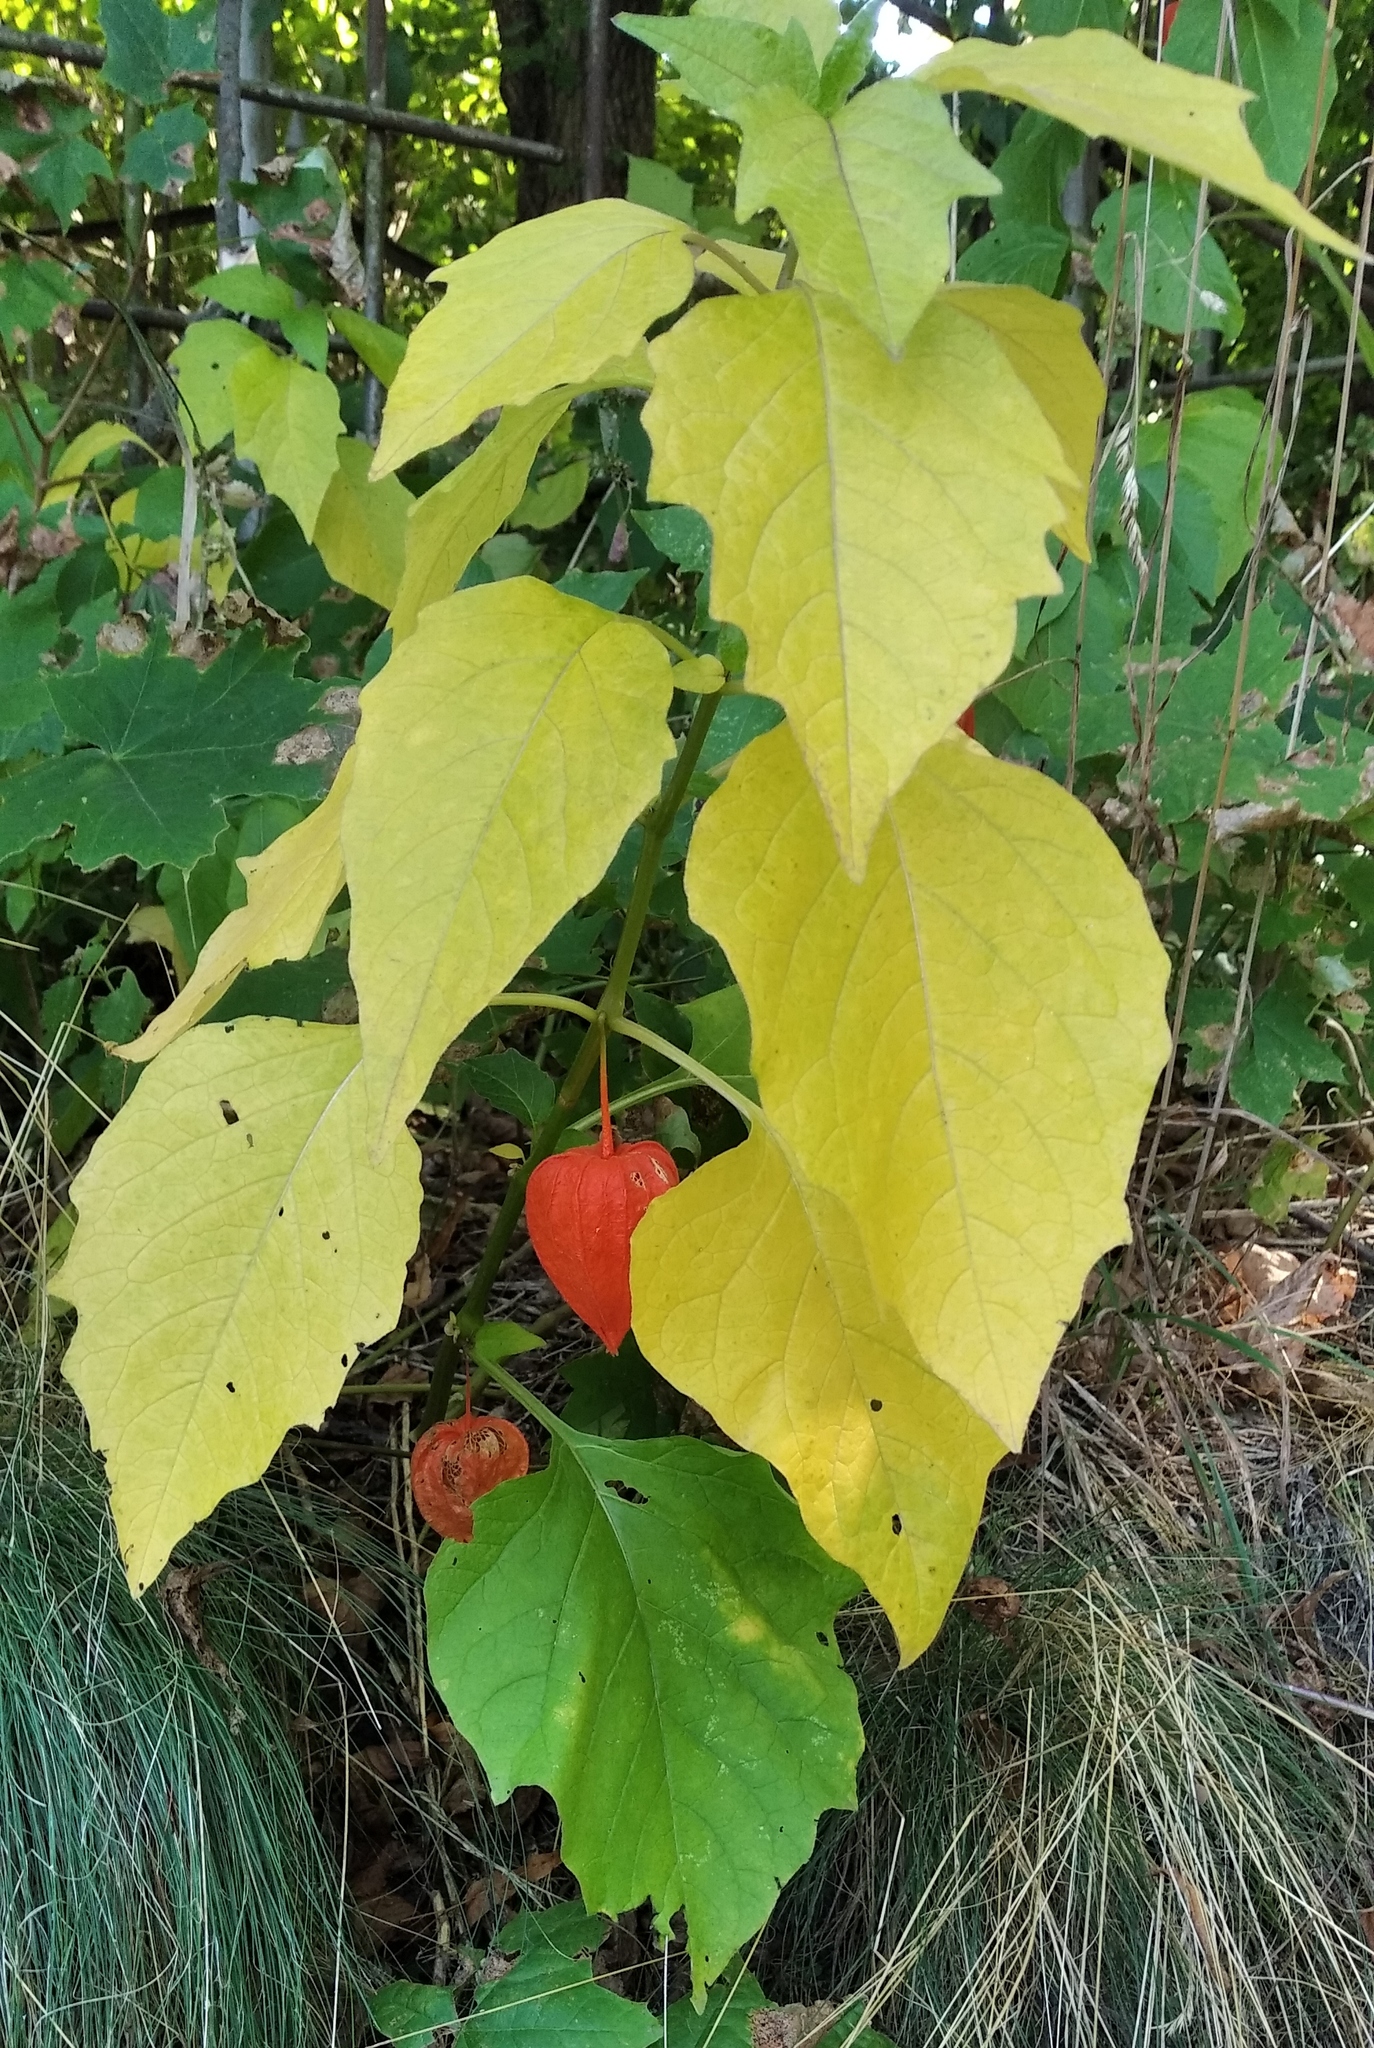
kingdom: Plantae
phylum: Tracheophyta
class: Magnoliopsida
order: Solanales
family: Solanaceae
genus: Alkekengi
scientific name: Alkekengi officinarum
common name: Japanese-lantern
